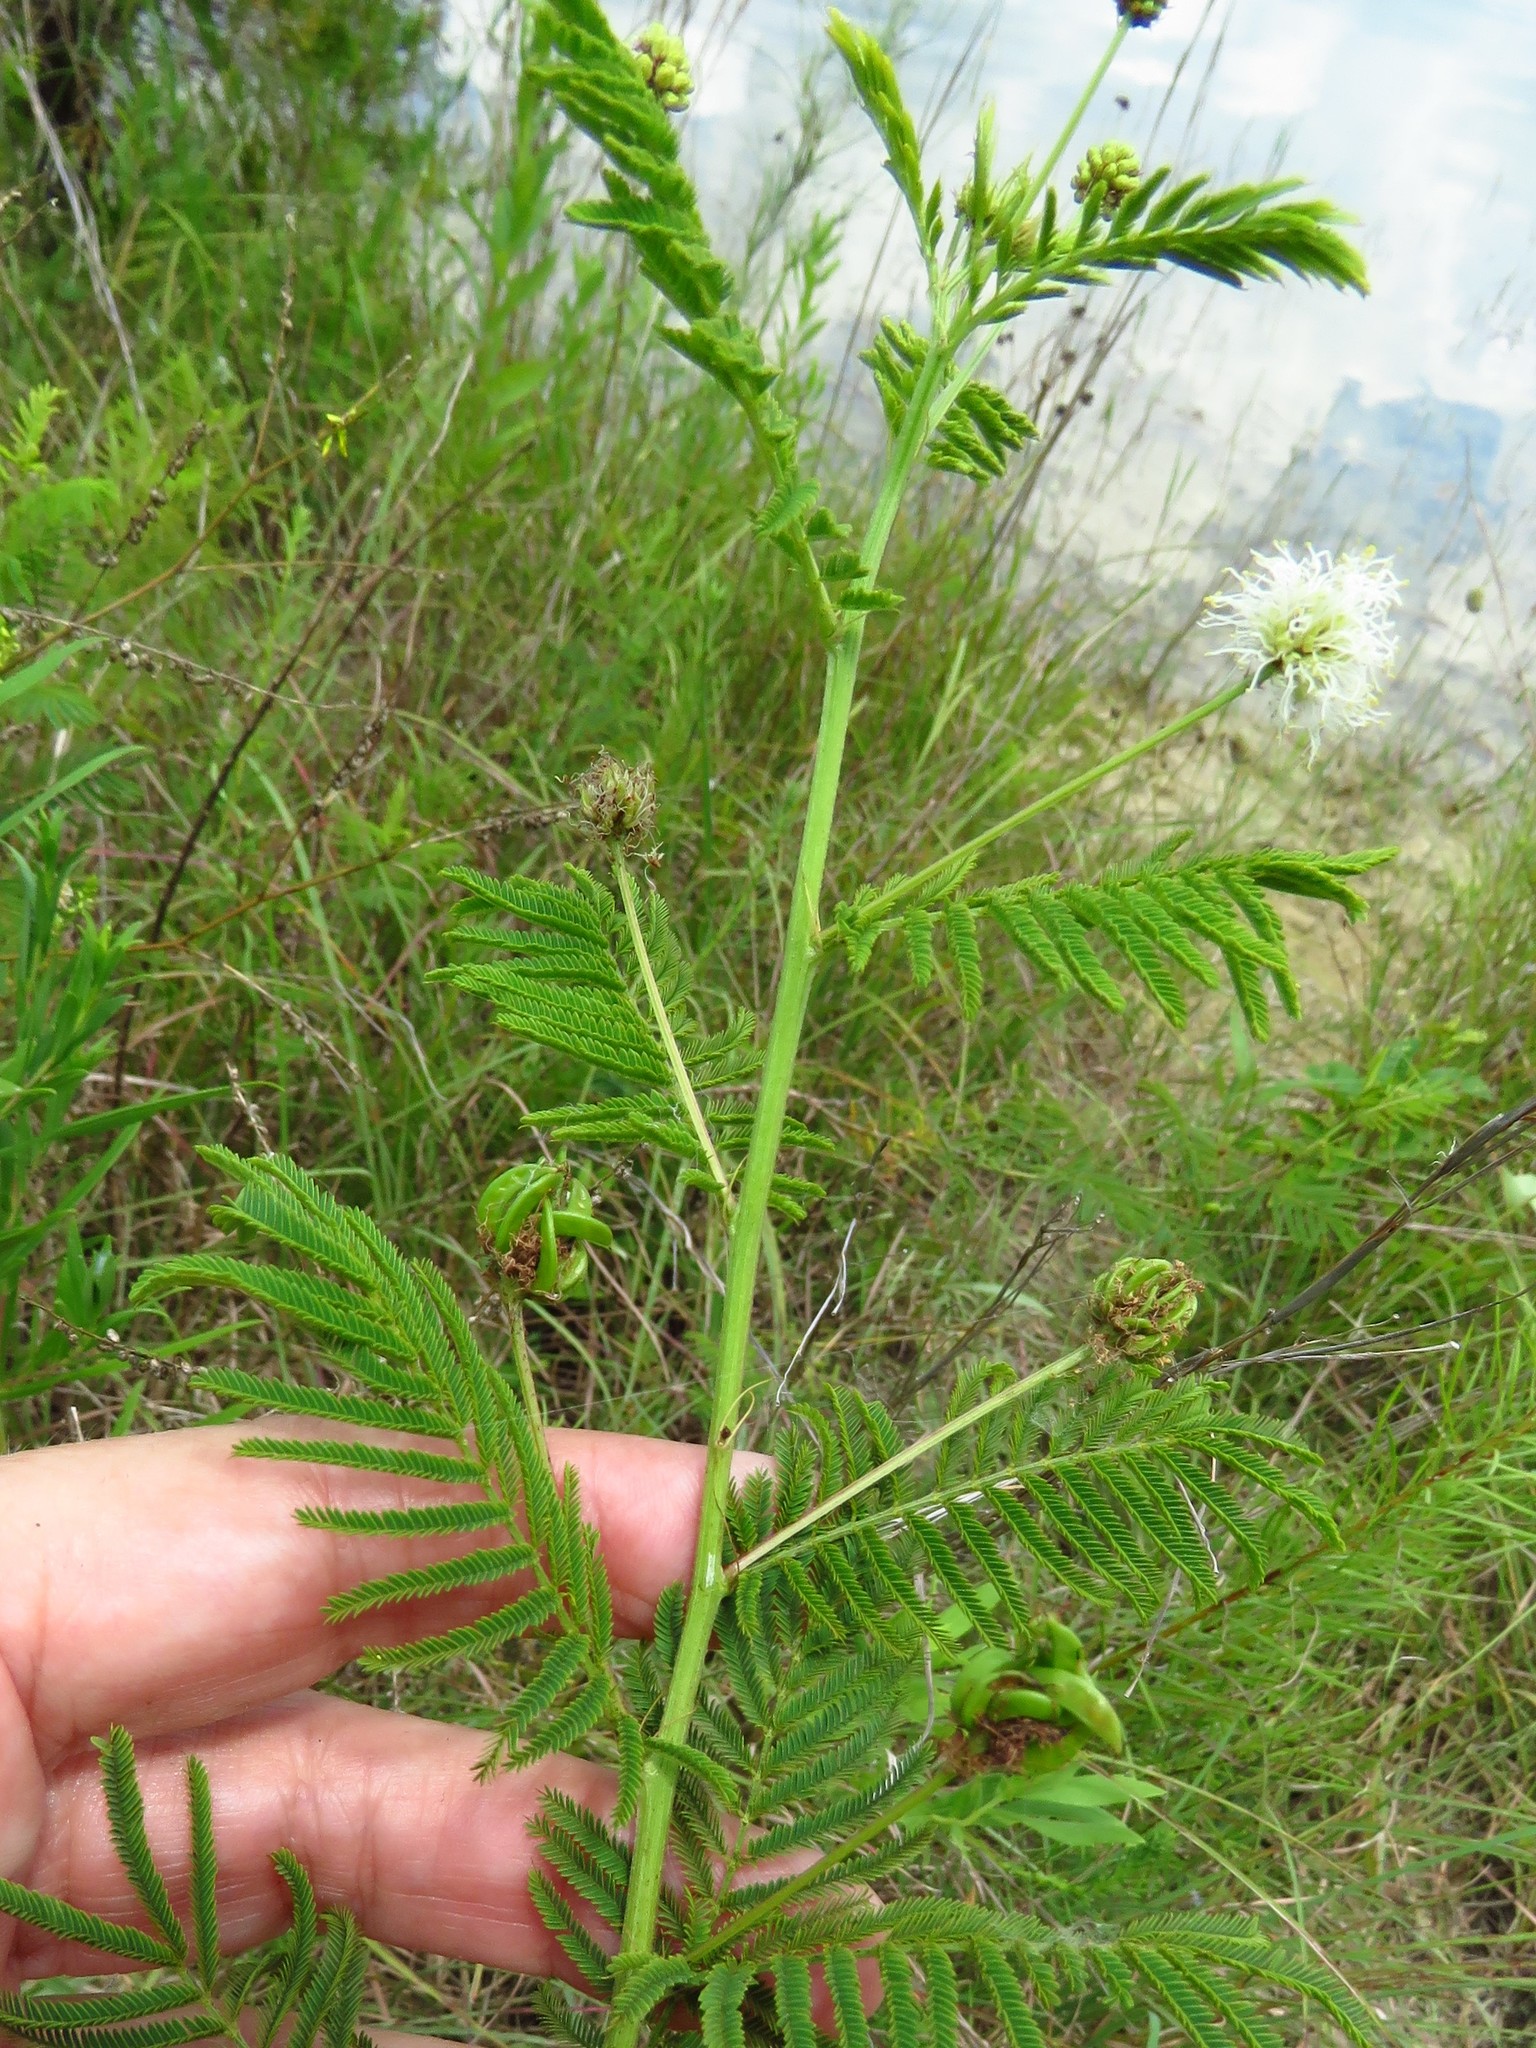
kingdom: Plantae
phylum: Tracheophyta
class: Magnoliopsida
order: Fabales
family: Fabaceae
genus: Desmanthus
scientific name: Desmanthus illinoensis
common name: Illinois bundle-flower
